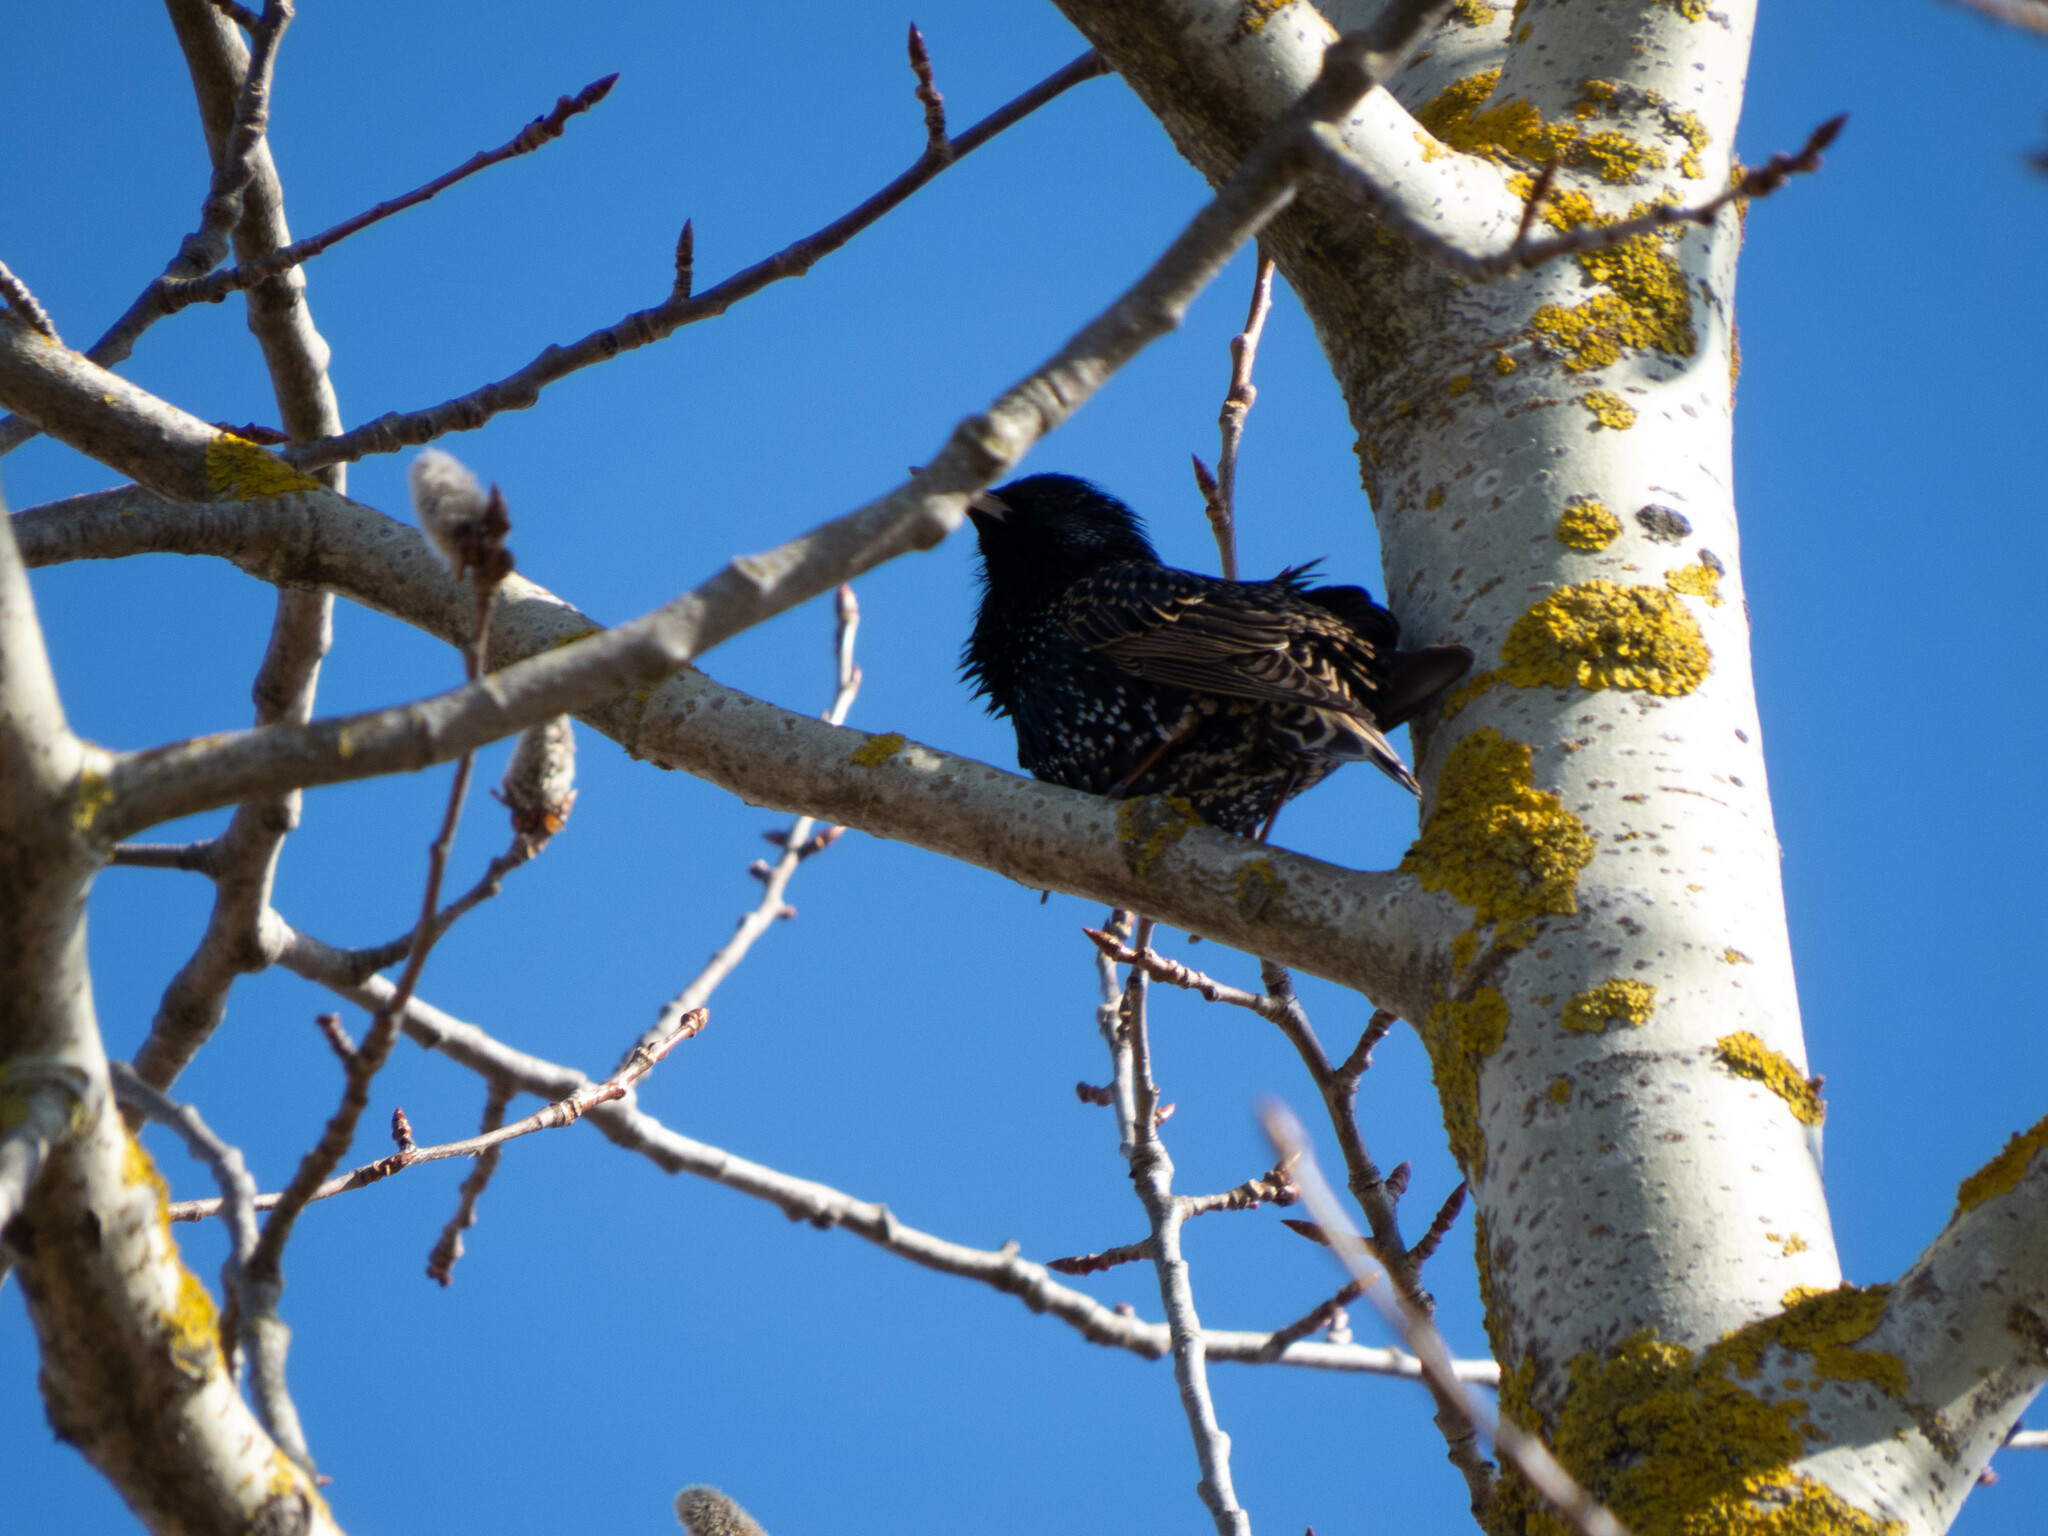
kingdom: Animalia
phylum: Chordata
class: Aves
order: Passeriformes
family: Sturnidae
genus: Sturnus
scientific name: Sturnus vulgaris
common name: Common starling
